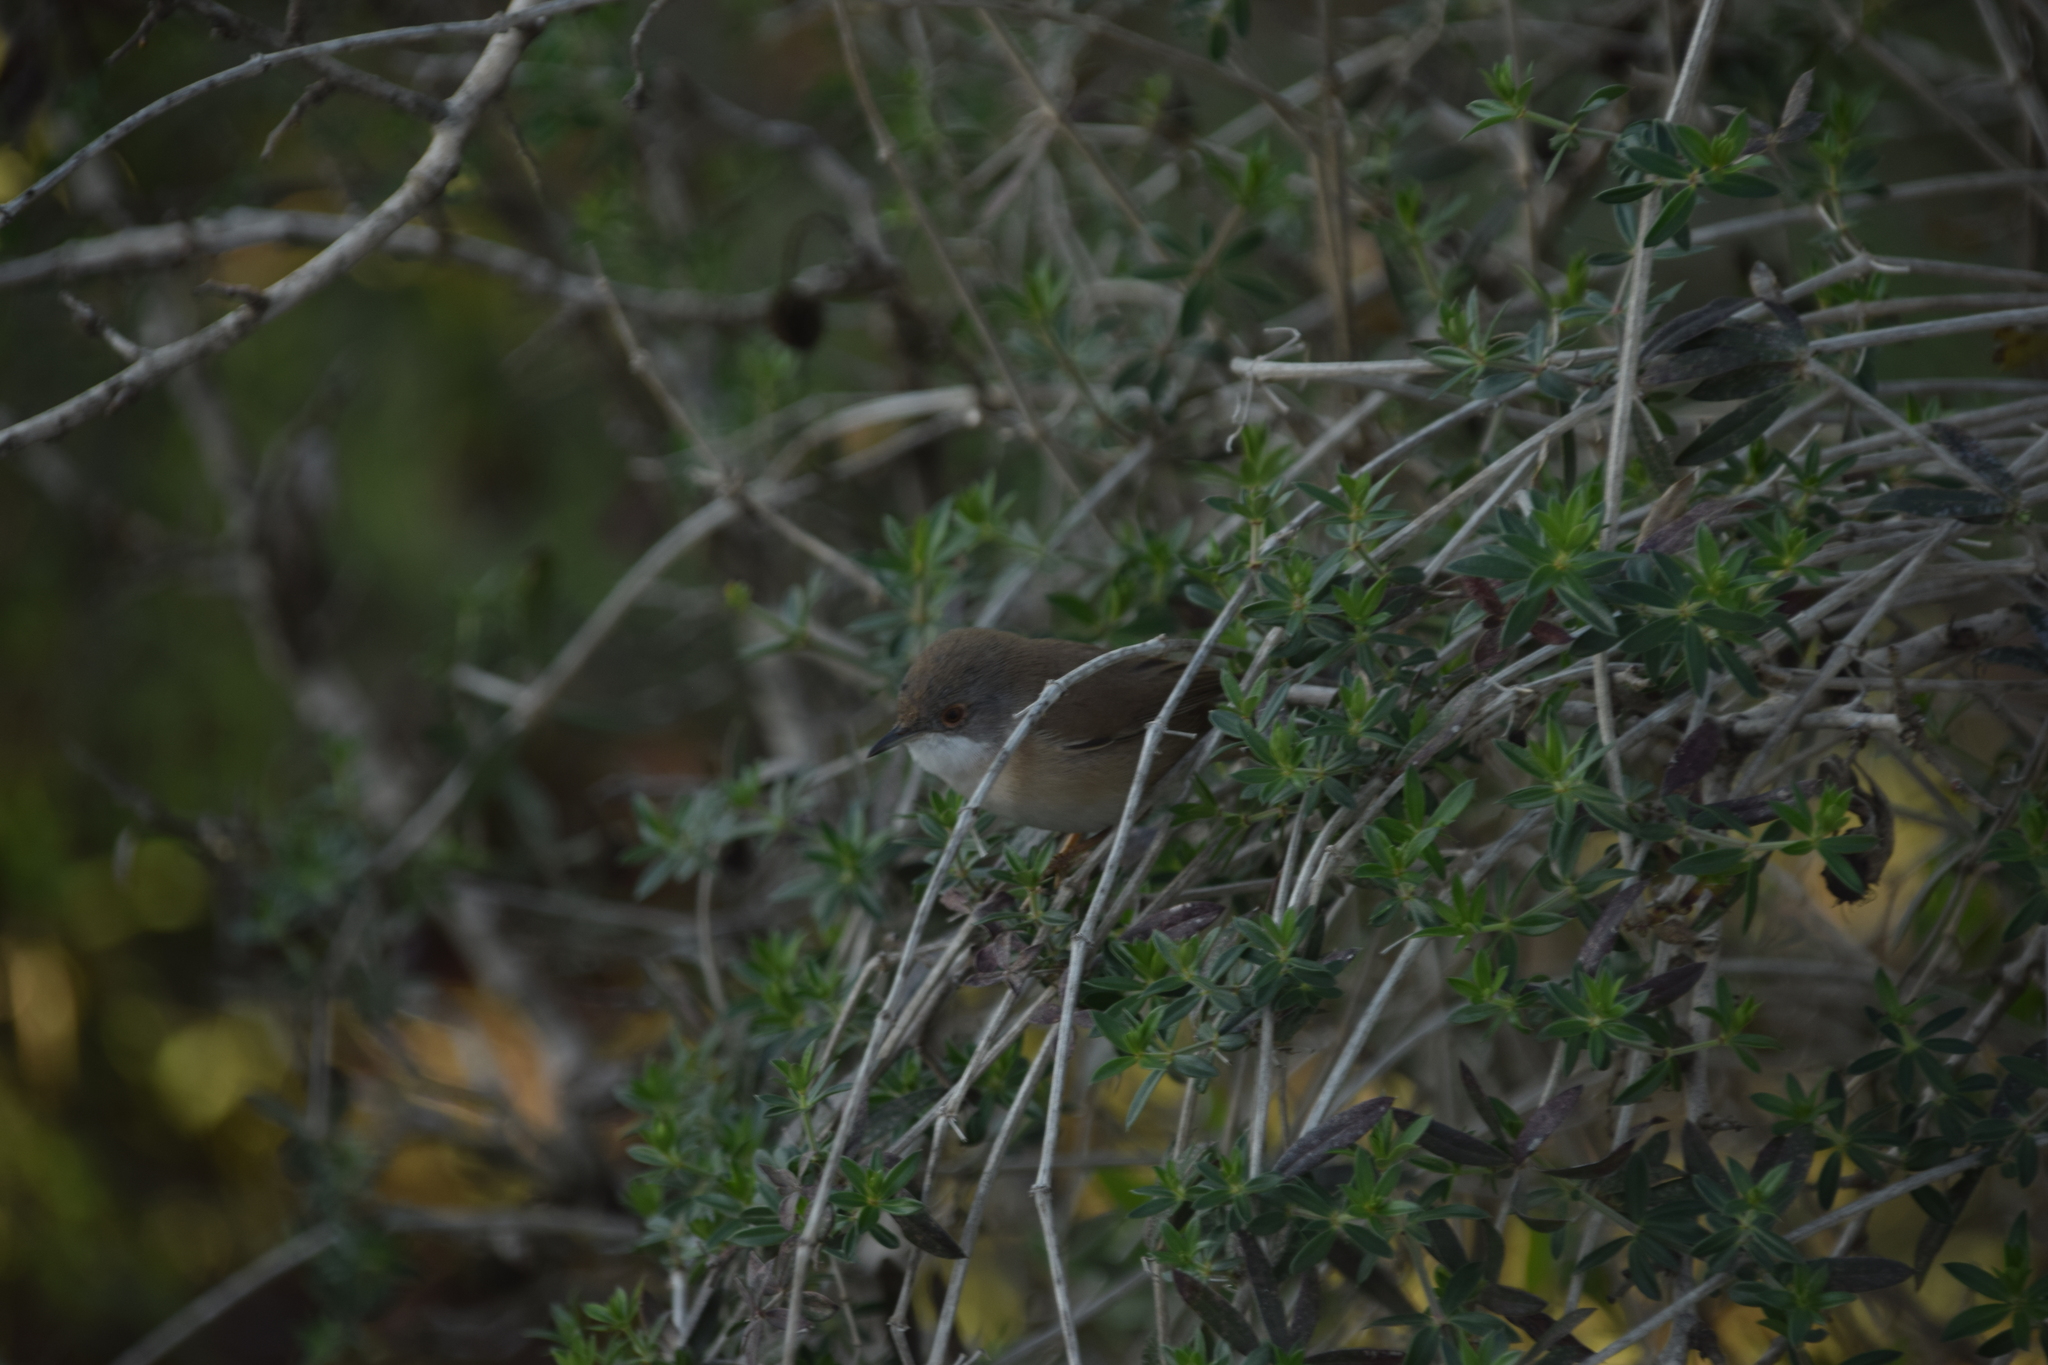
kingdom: Animalia
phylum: Chordata
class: Aves
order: Passeriformes
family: Sylviidae
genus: Curruca
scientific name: Curruca melanocephala
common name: Sardinian warbler
